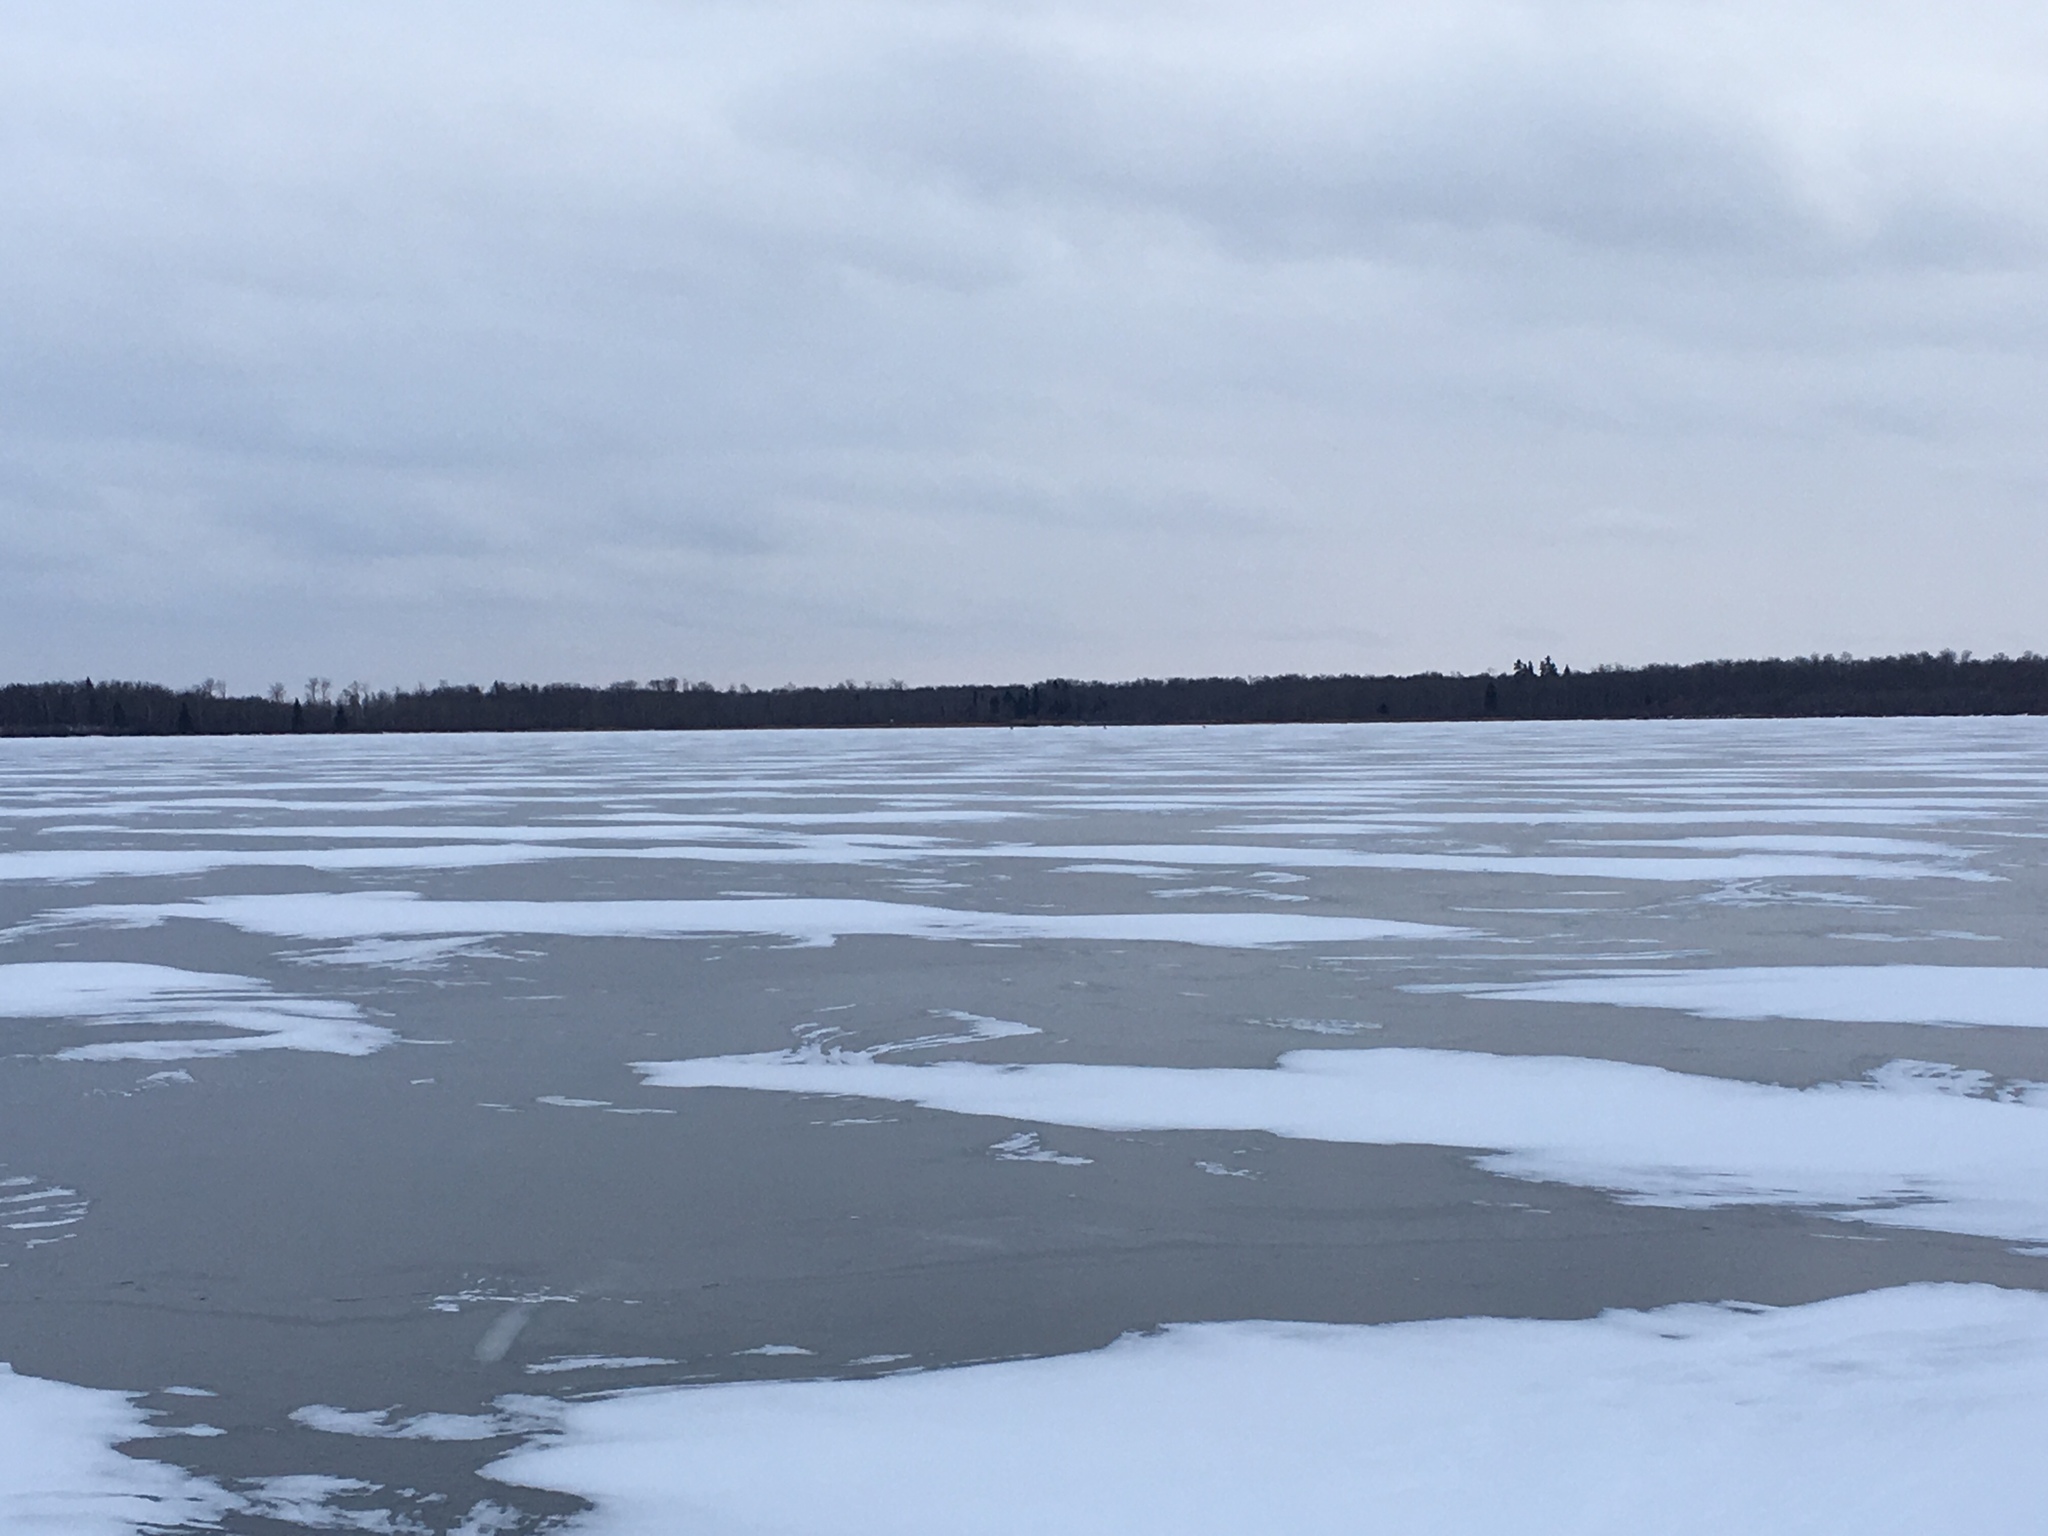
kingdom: Animalia
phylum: Chordata
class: Mammalia
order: Carnivora
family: Canidae
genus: Canis
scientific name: Canis lupus
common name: Gray wolf
